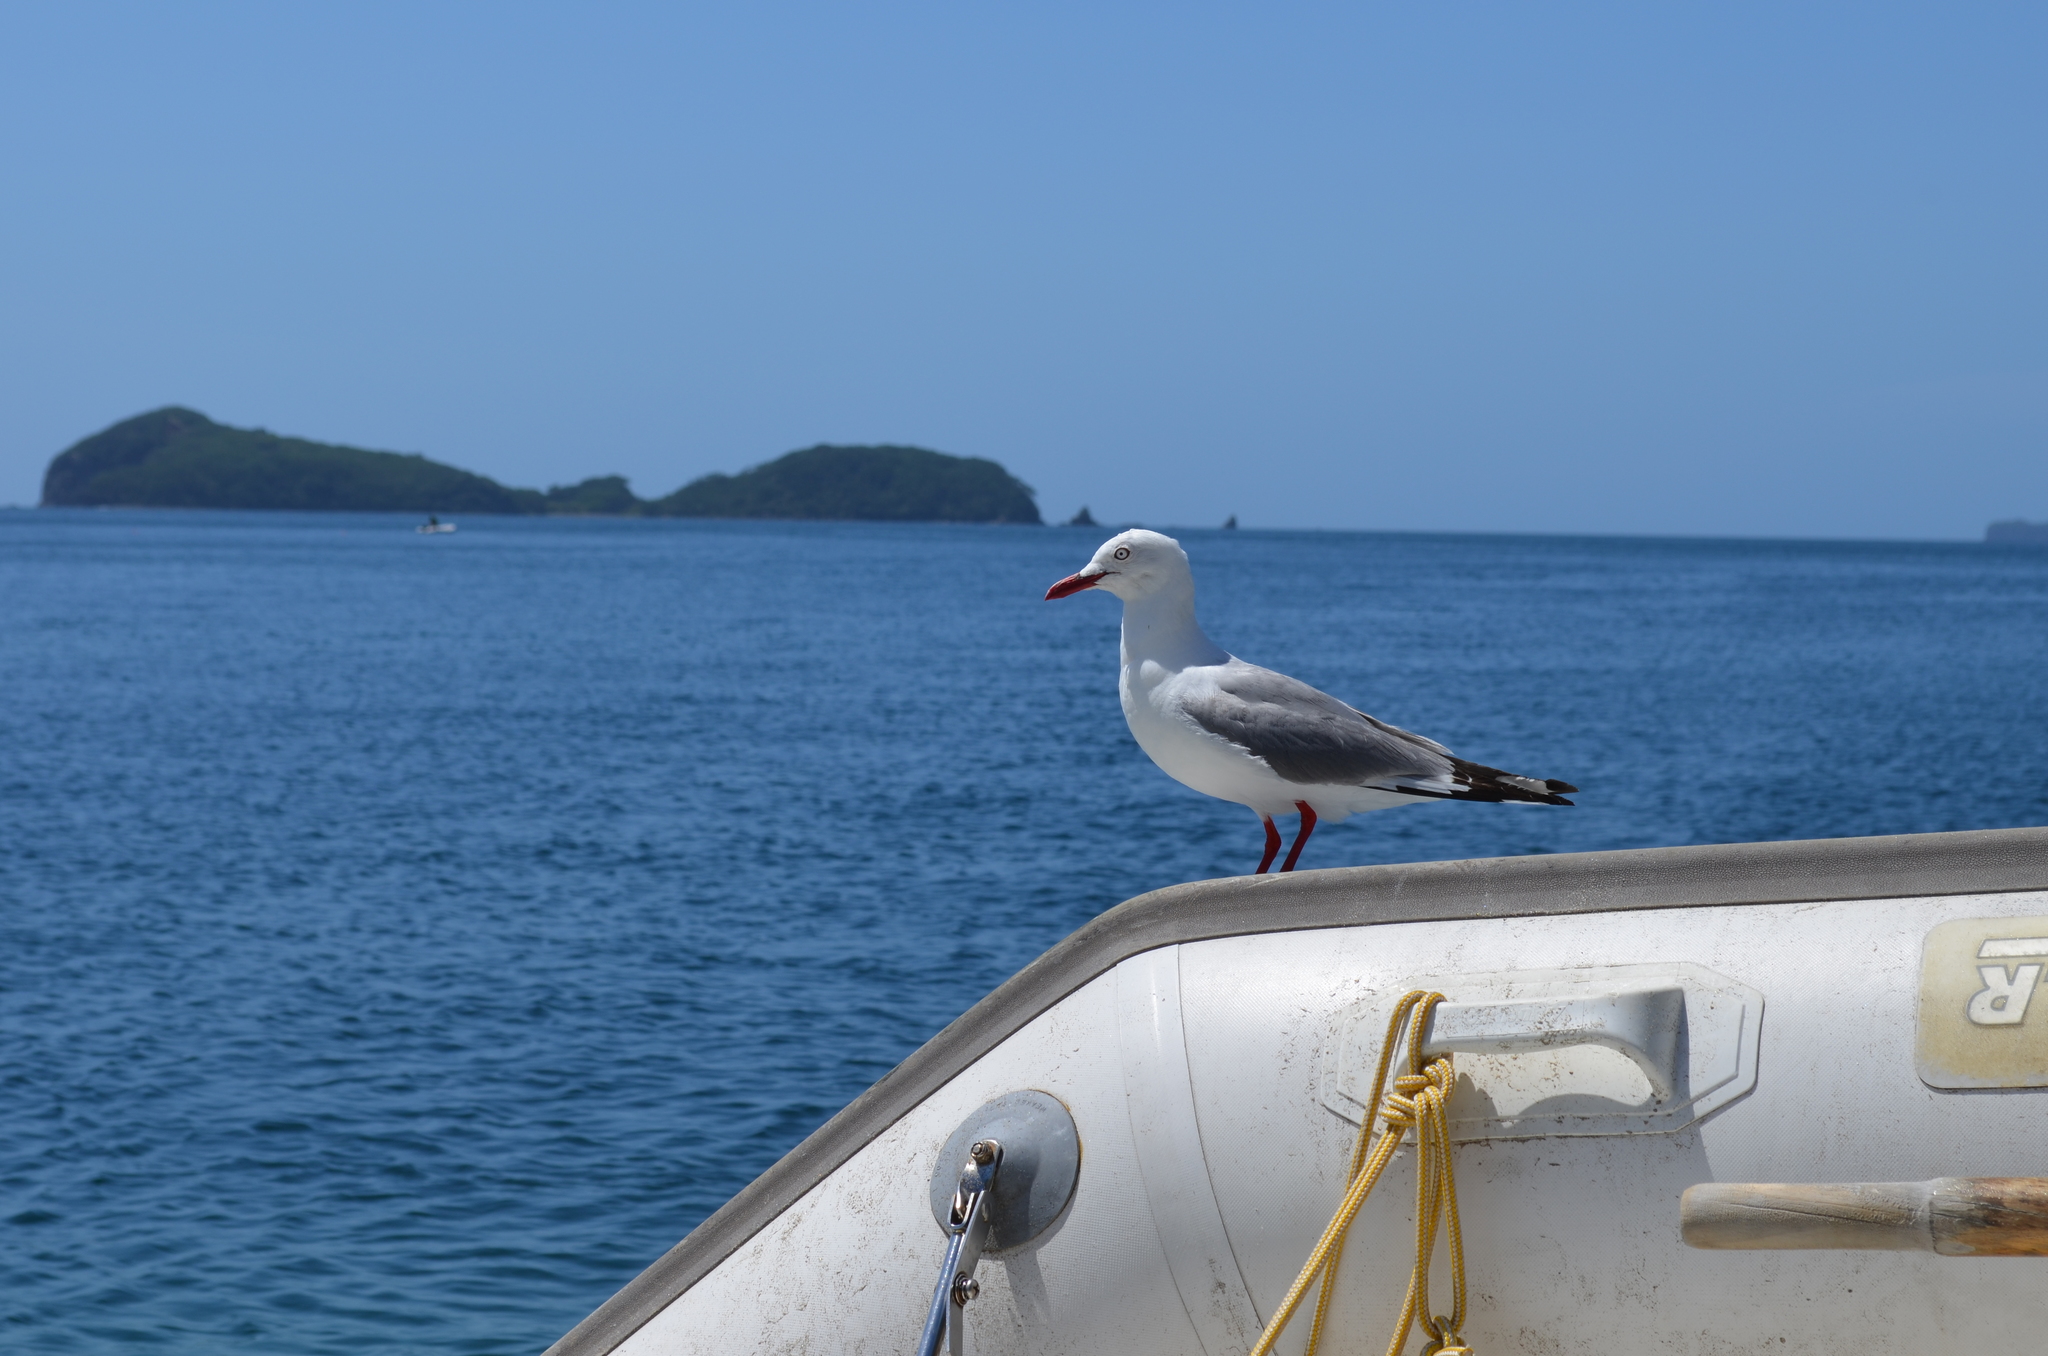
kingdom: Animalia
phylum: Chordata
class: Aves
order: Charadriiformes
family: Laridae
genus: Chroicocephalus
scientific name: Chroicocephalus novaehollandiae
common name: Silver gull
